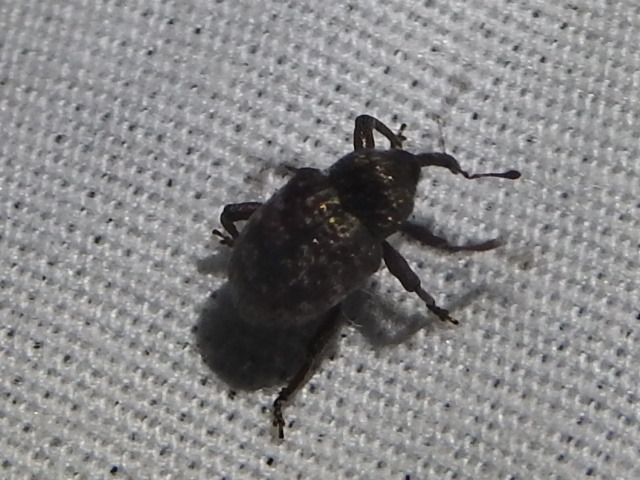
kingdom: Animalia
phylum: Arthropoda
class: Insecta
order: Coleoptera
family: Curculionidae
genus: Chalcodermus
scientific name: Chalcodermus collaris
